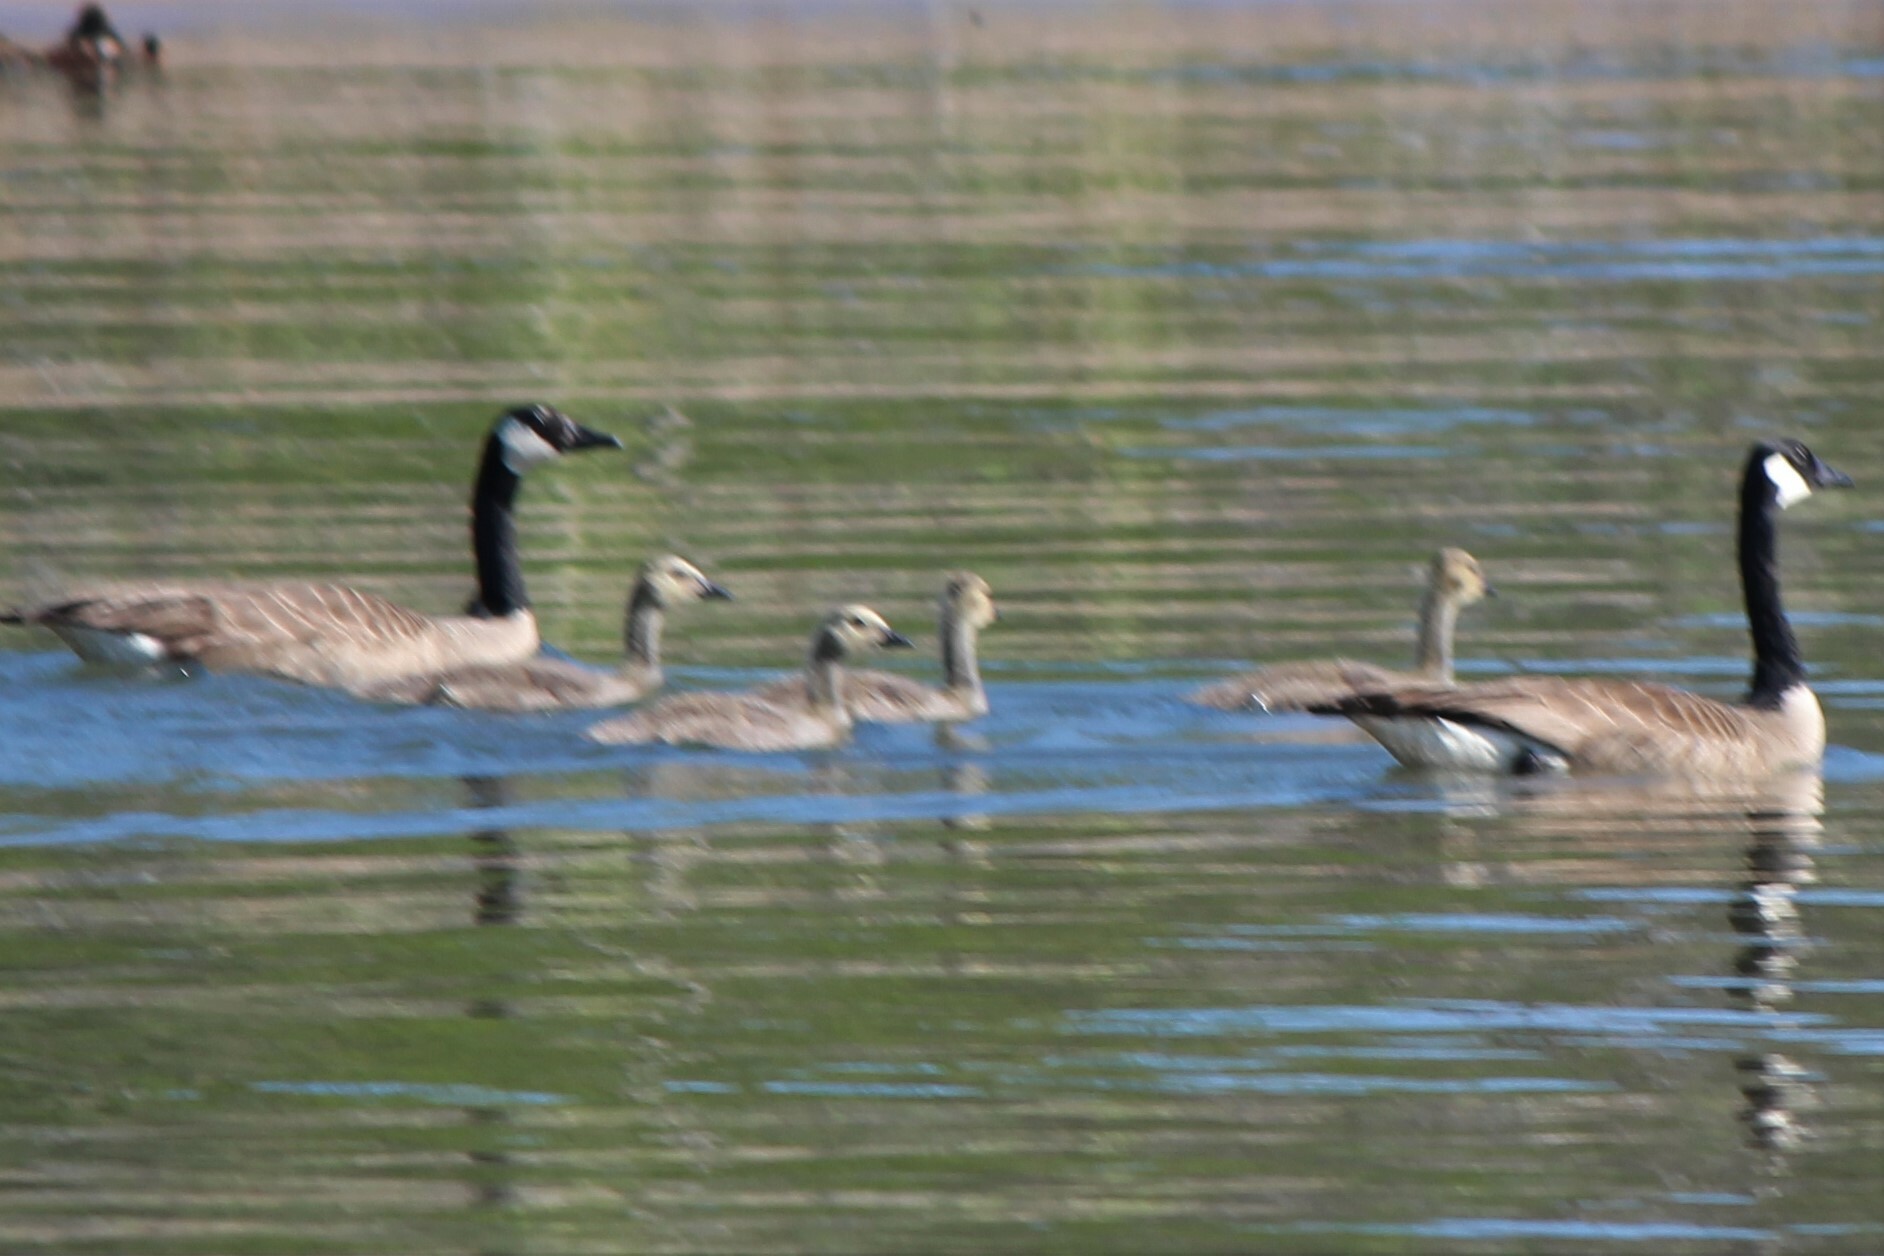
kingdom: Animalia
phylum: Chordata
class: Aves
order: Anseriformes
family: Anatidae
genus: Branta
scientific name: Branta canadensis
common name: Canada goose
